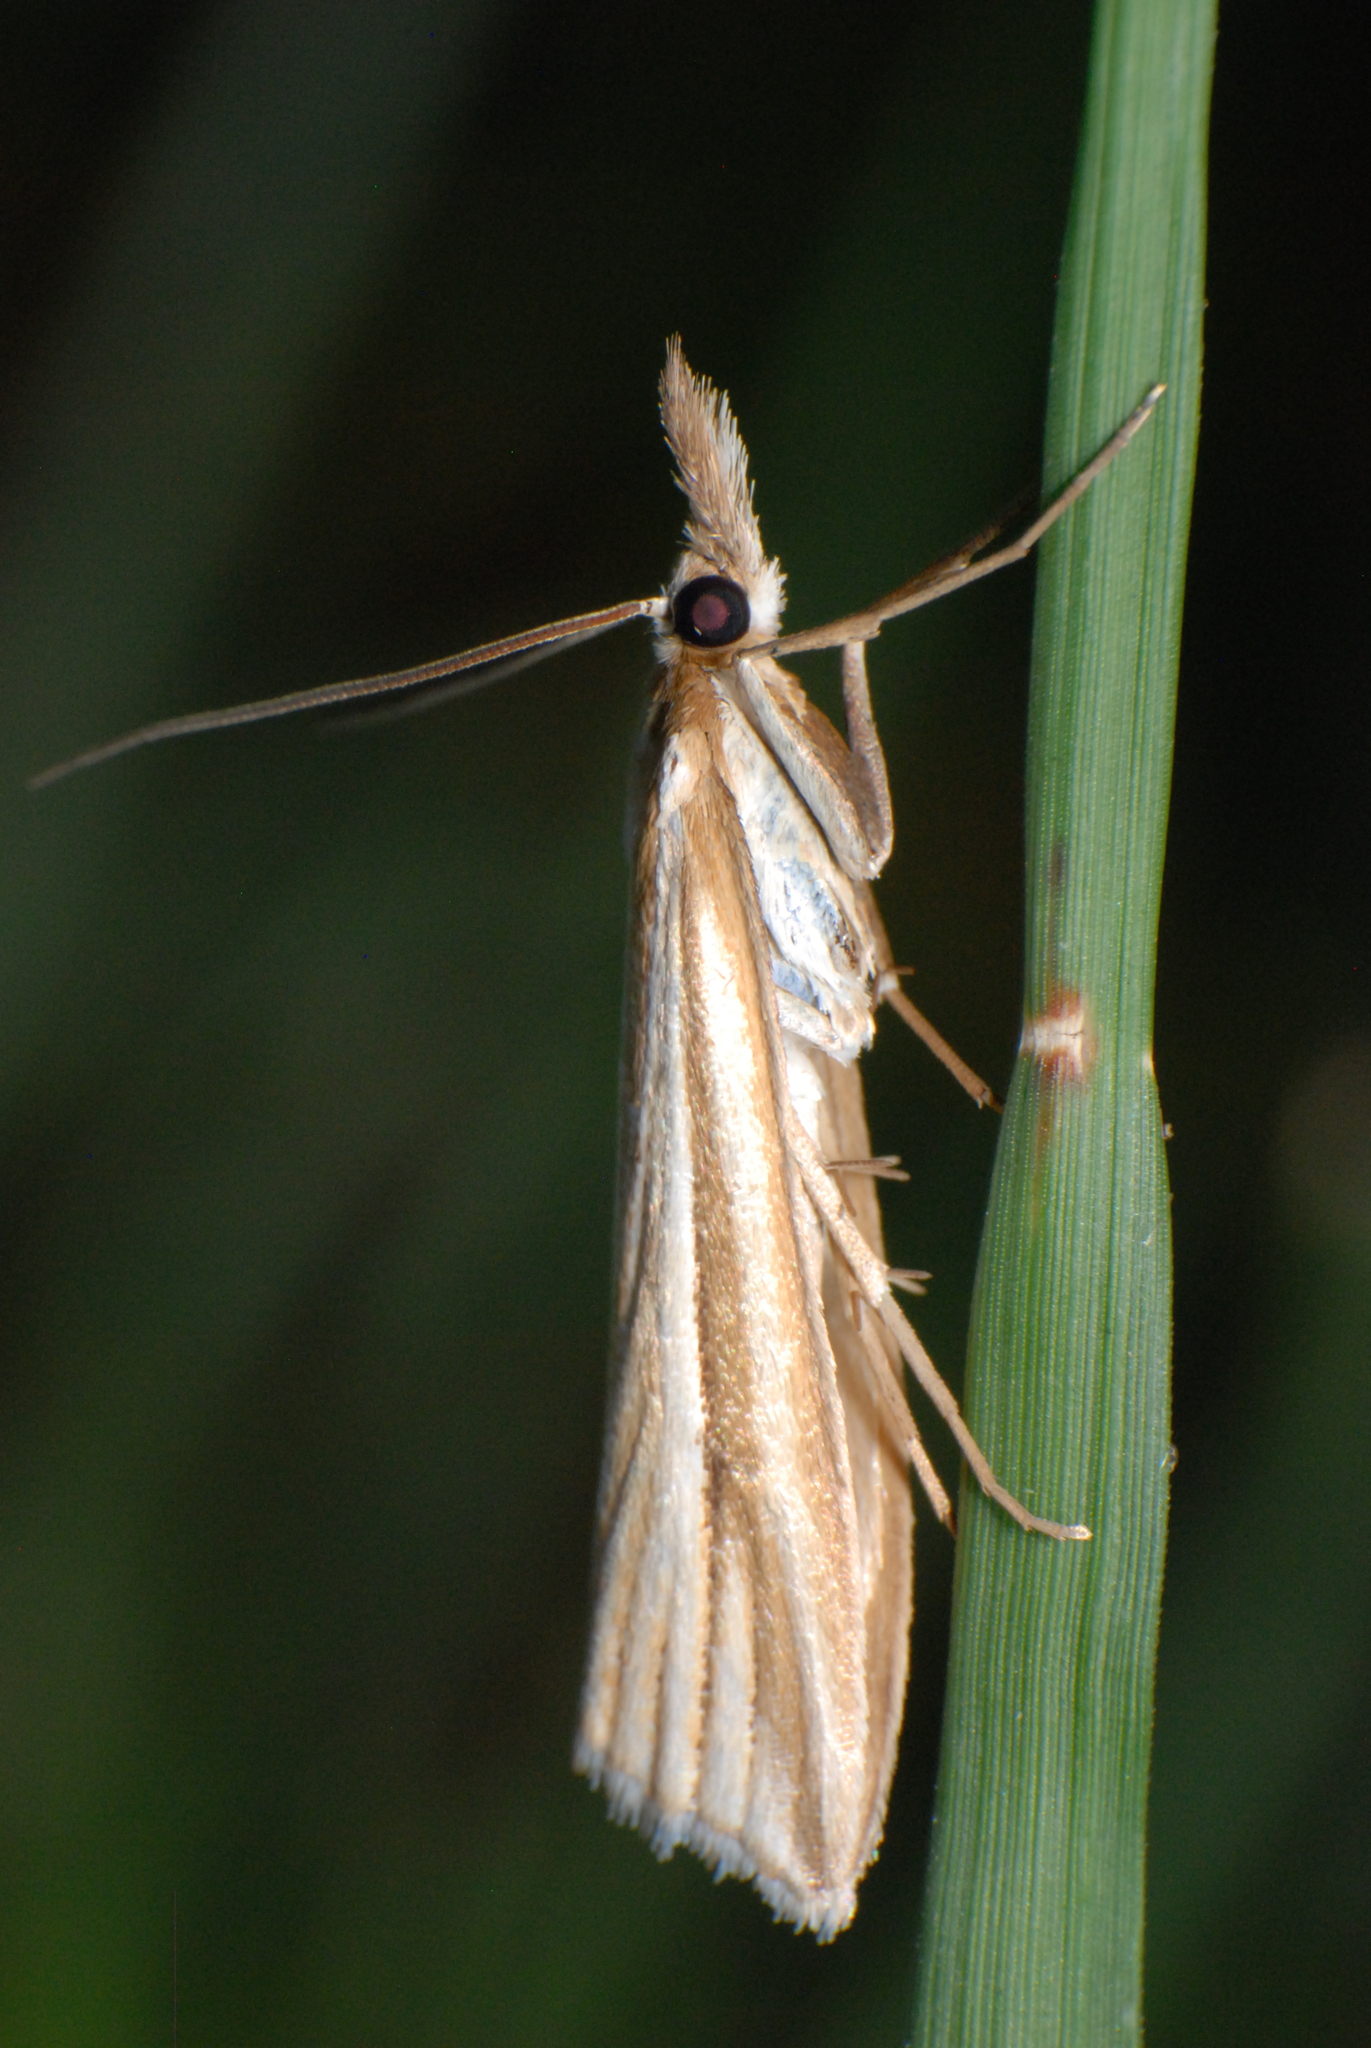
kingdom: Animalia
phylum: Arthropoda
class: Insecta
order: Lepidoptera
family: Crambidae
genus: Hednota
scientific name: Hednota grammellus
